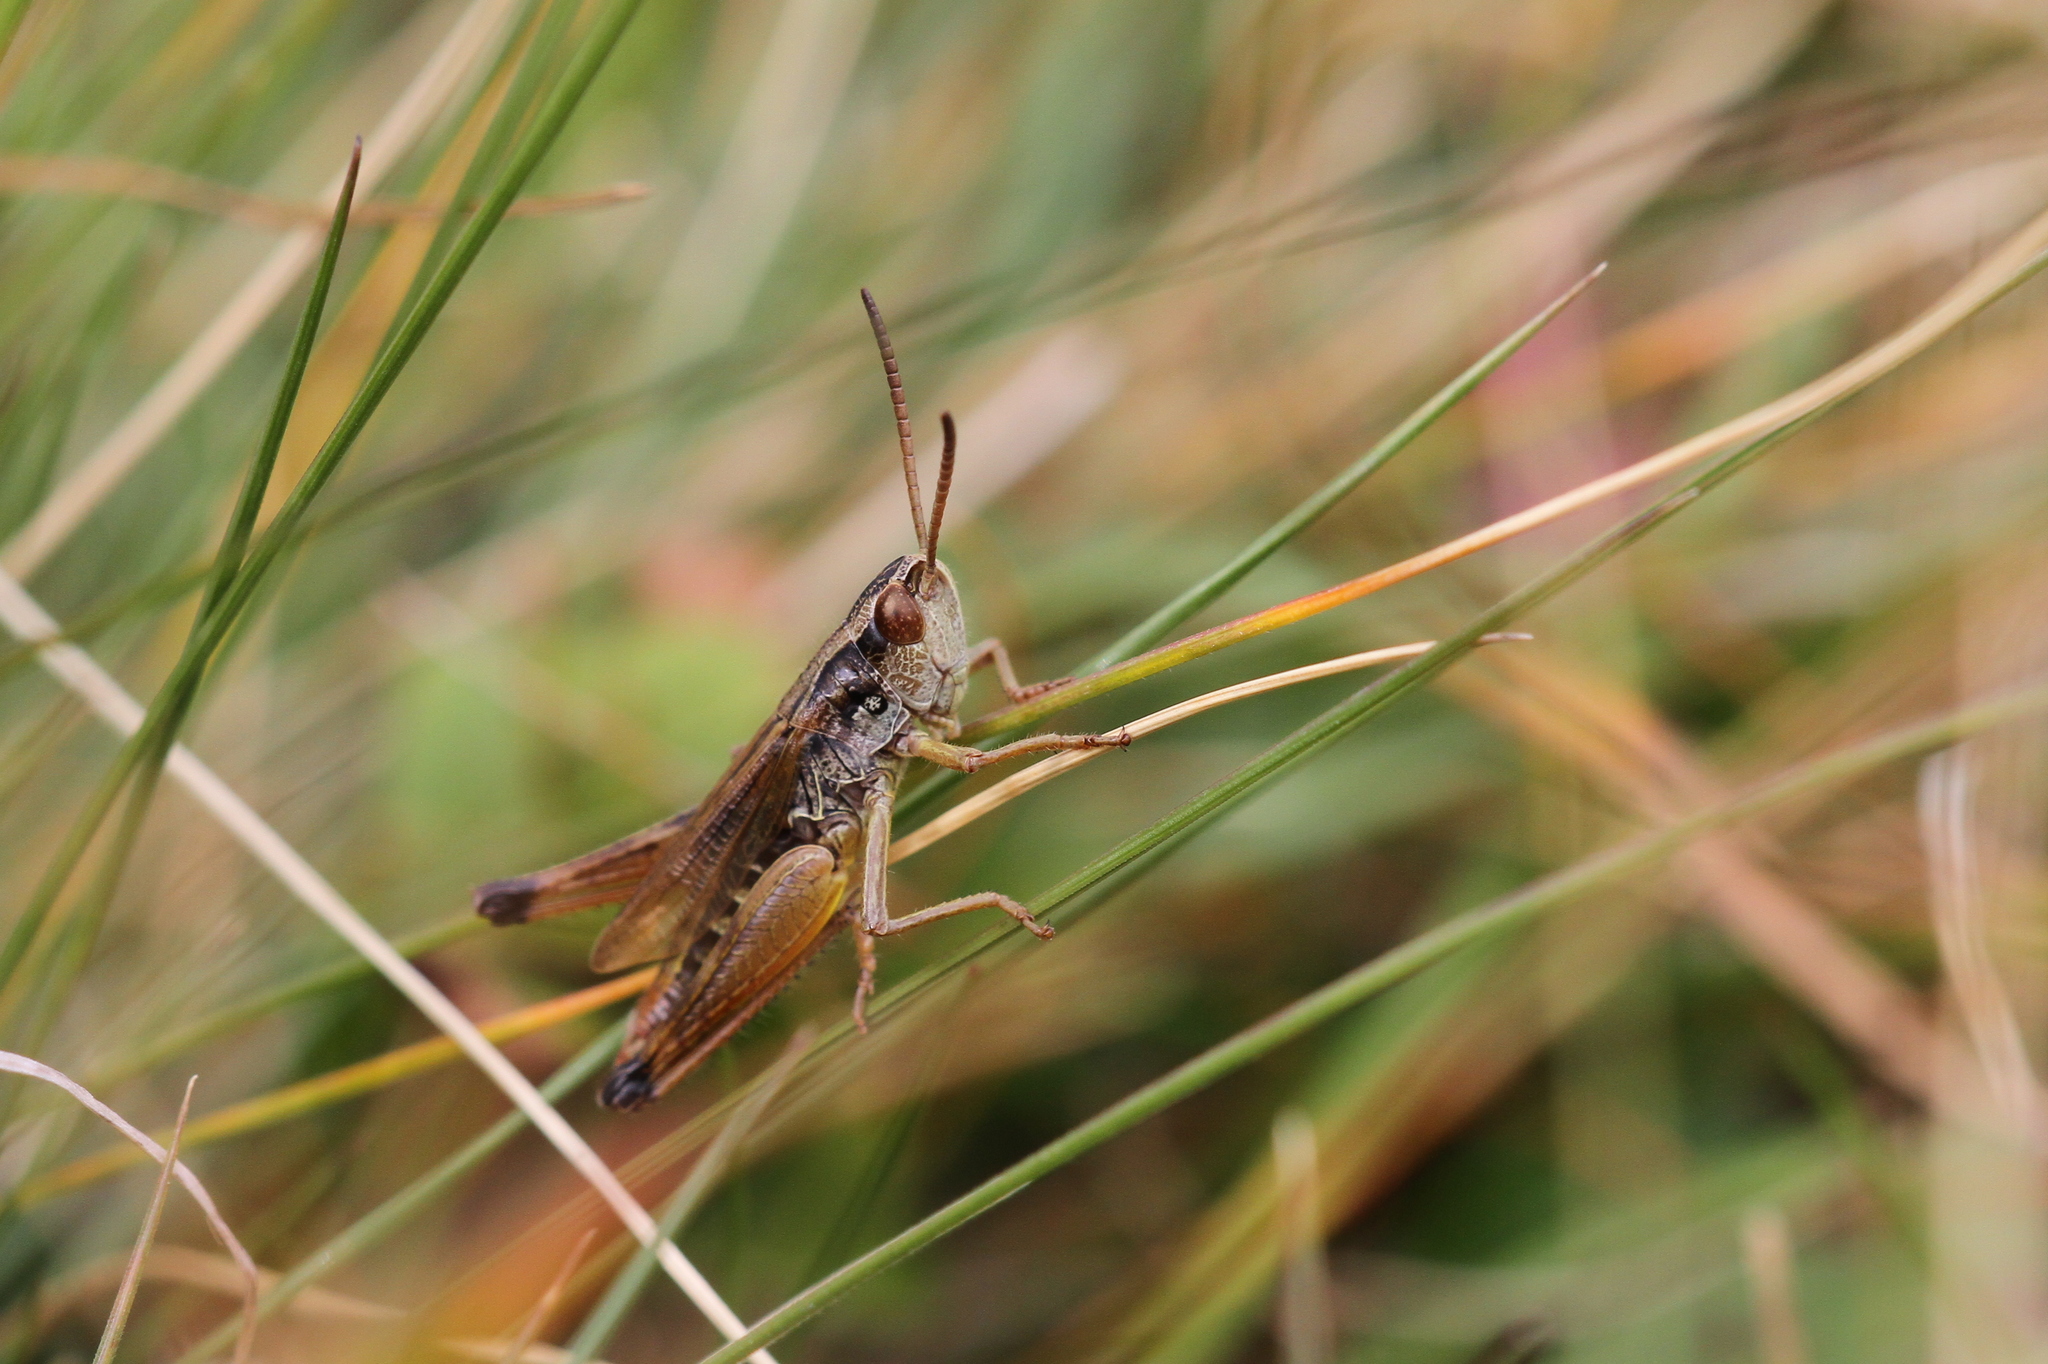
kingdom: Animalia
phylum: Arthropoda
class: Insecta
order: Orthoptera
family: Acrididae
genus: Pseudochorthippus
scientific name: Pseudochorthippus parallelus
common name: Meadow grasshopper
